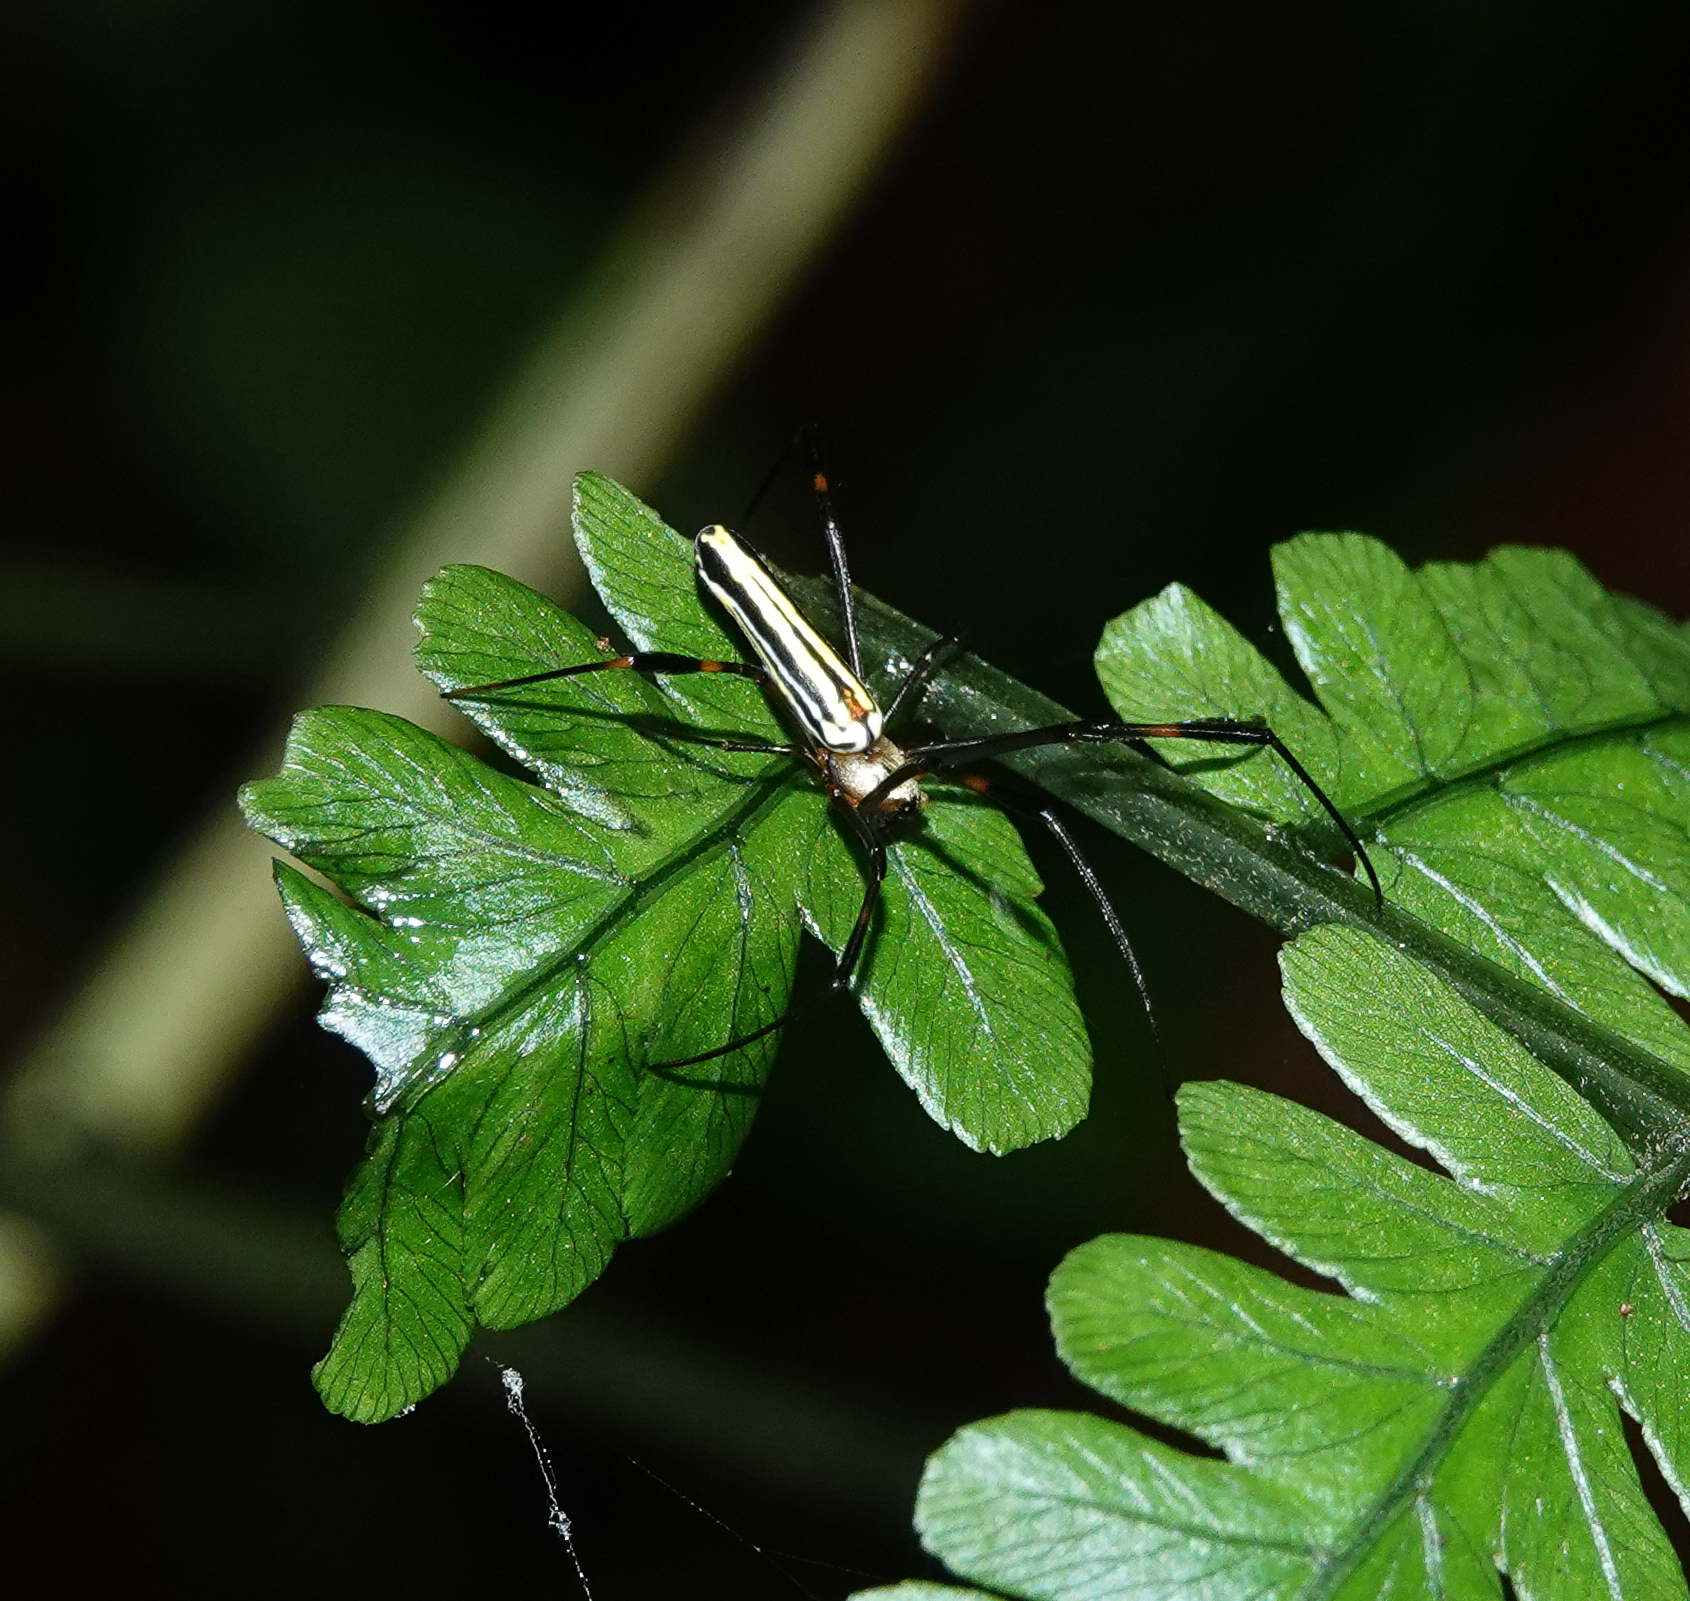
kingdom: Animalia
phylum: Arthropoda
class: Arachnida
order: Araneae
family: Araneidae
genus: Nephila
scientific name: Nephila pilipes
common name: Giant golden orb weaver
